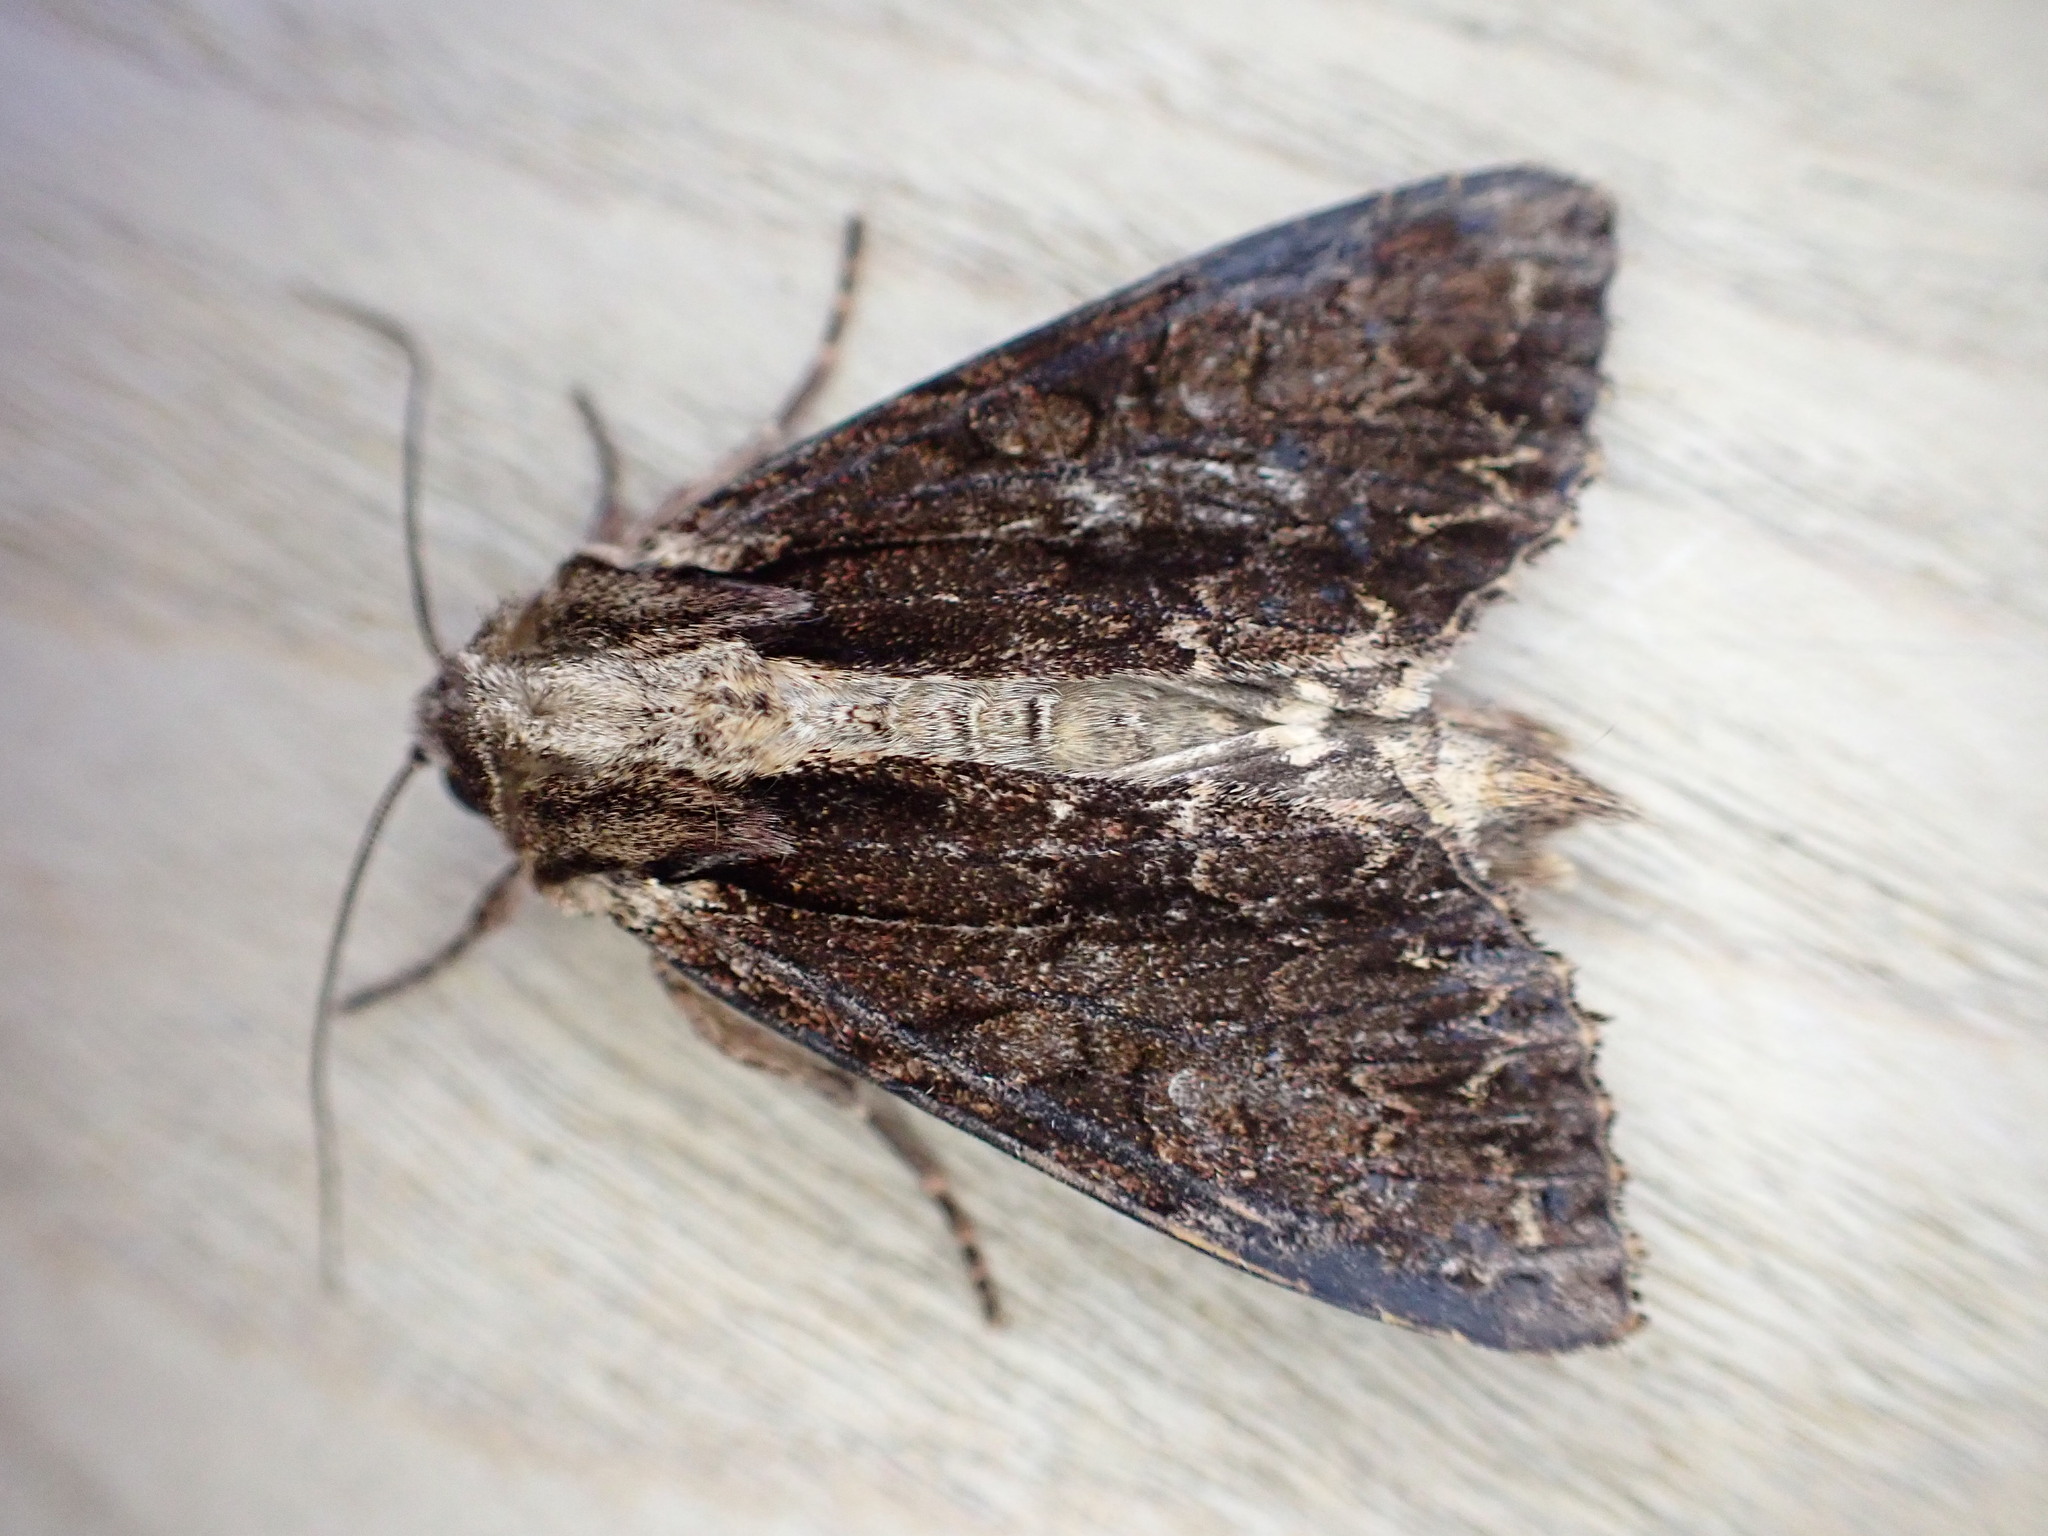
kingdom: Animalia
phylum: Arthropoda
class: Insecta
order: Lepidoptera
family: Noctuidae
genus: Apamea
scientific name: Apamea monoglypha
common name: Dark arches
